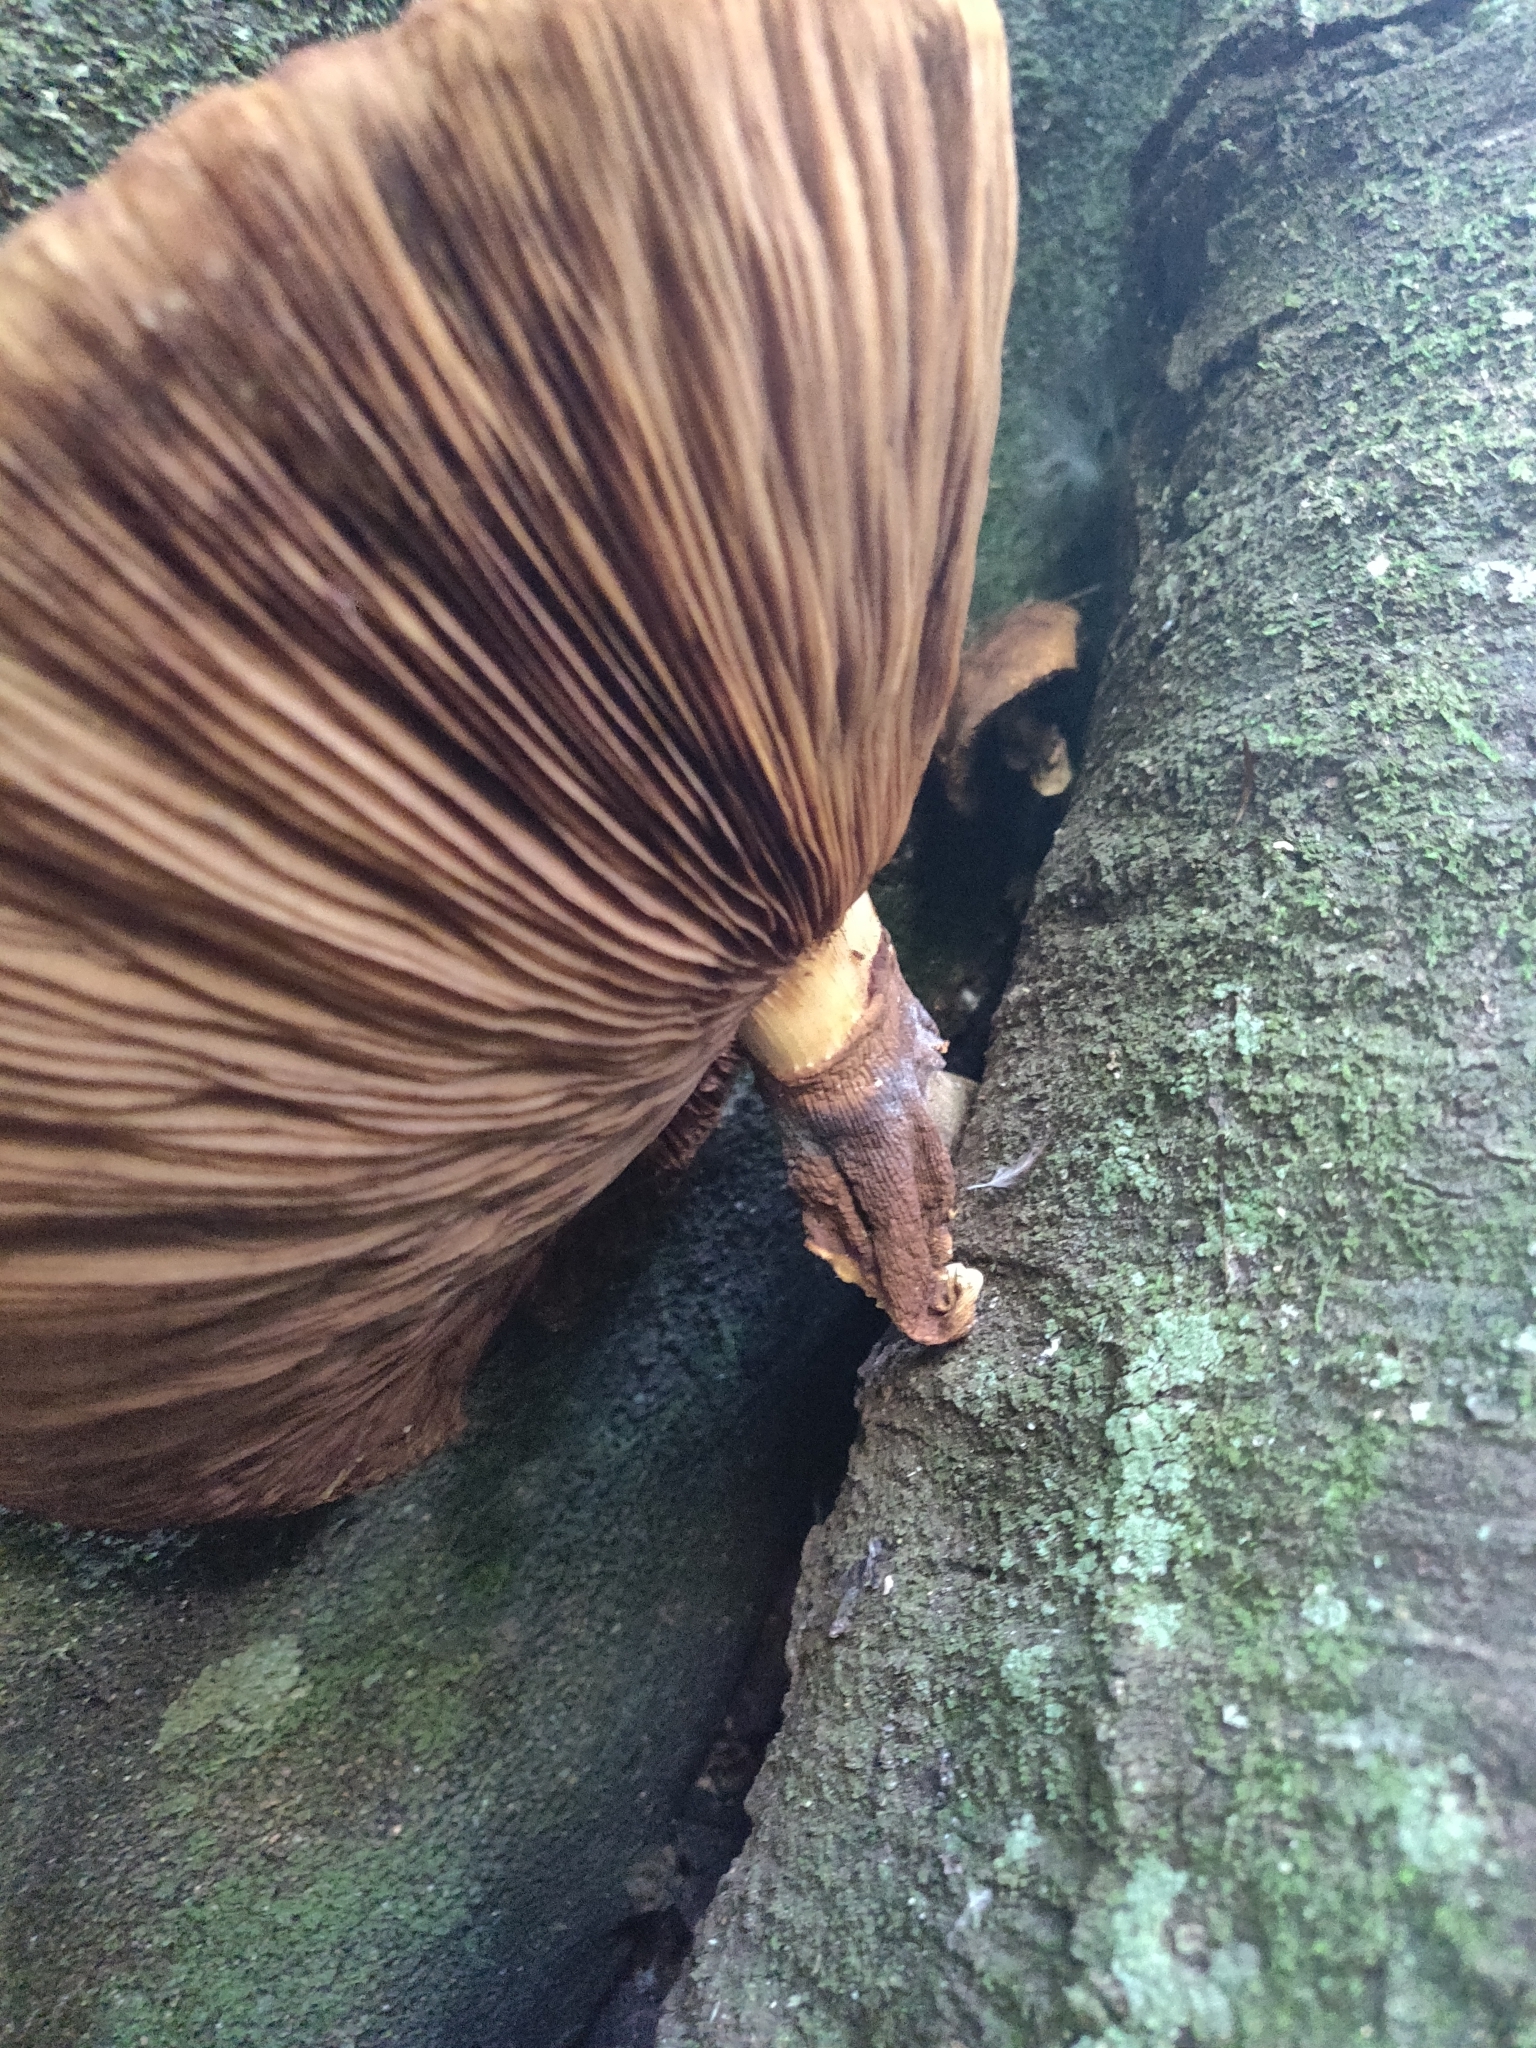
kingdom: Fungi
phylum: Basidiomycota
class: Agaricomycetes
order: Agaricales
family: Tubariaceae
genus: Cyclocybe
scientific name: Cyclocybe parasitica
